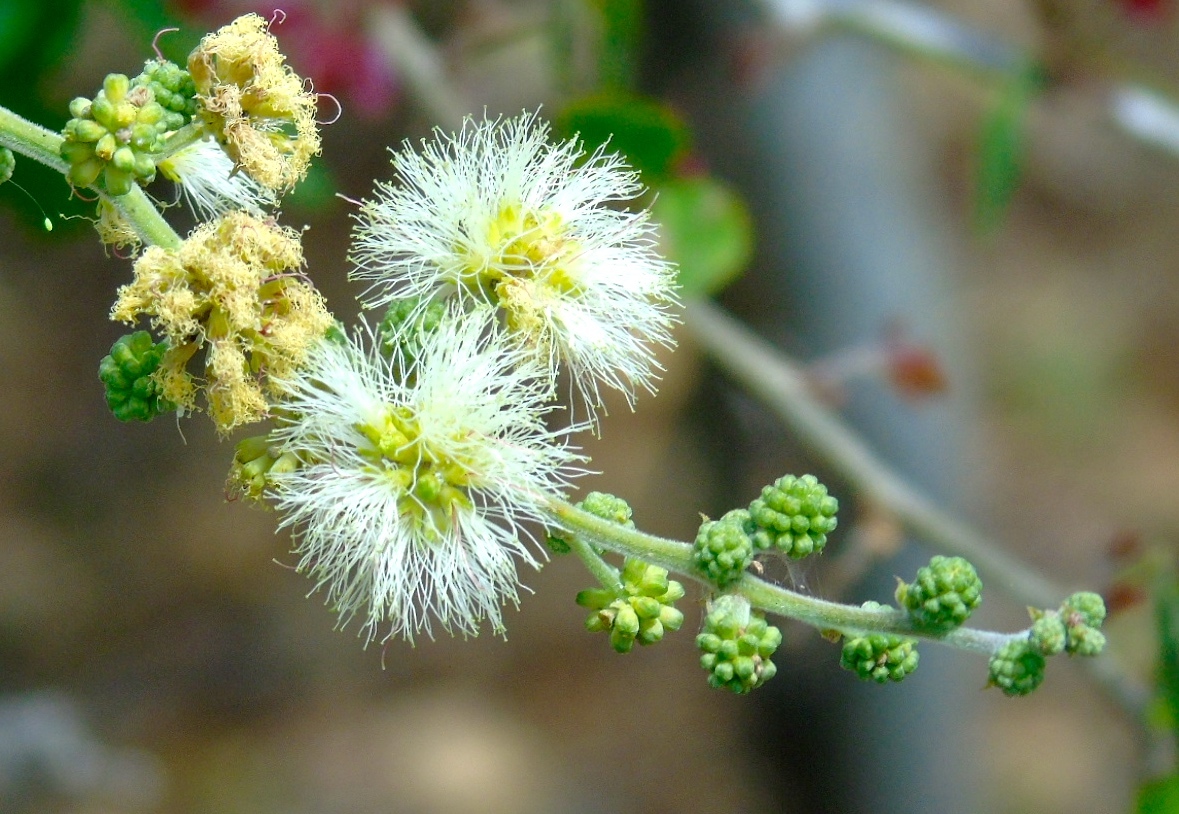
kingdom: Plantae
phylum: Tracheophyta
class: Magnoliopsida
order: Fabales
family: Fabaceae
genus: Pithecellobium
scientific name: Pithecellobium dulce
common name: Monkeypod
